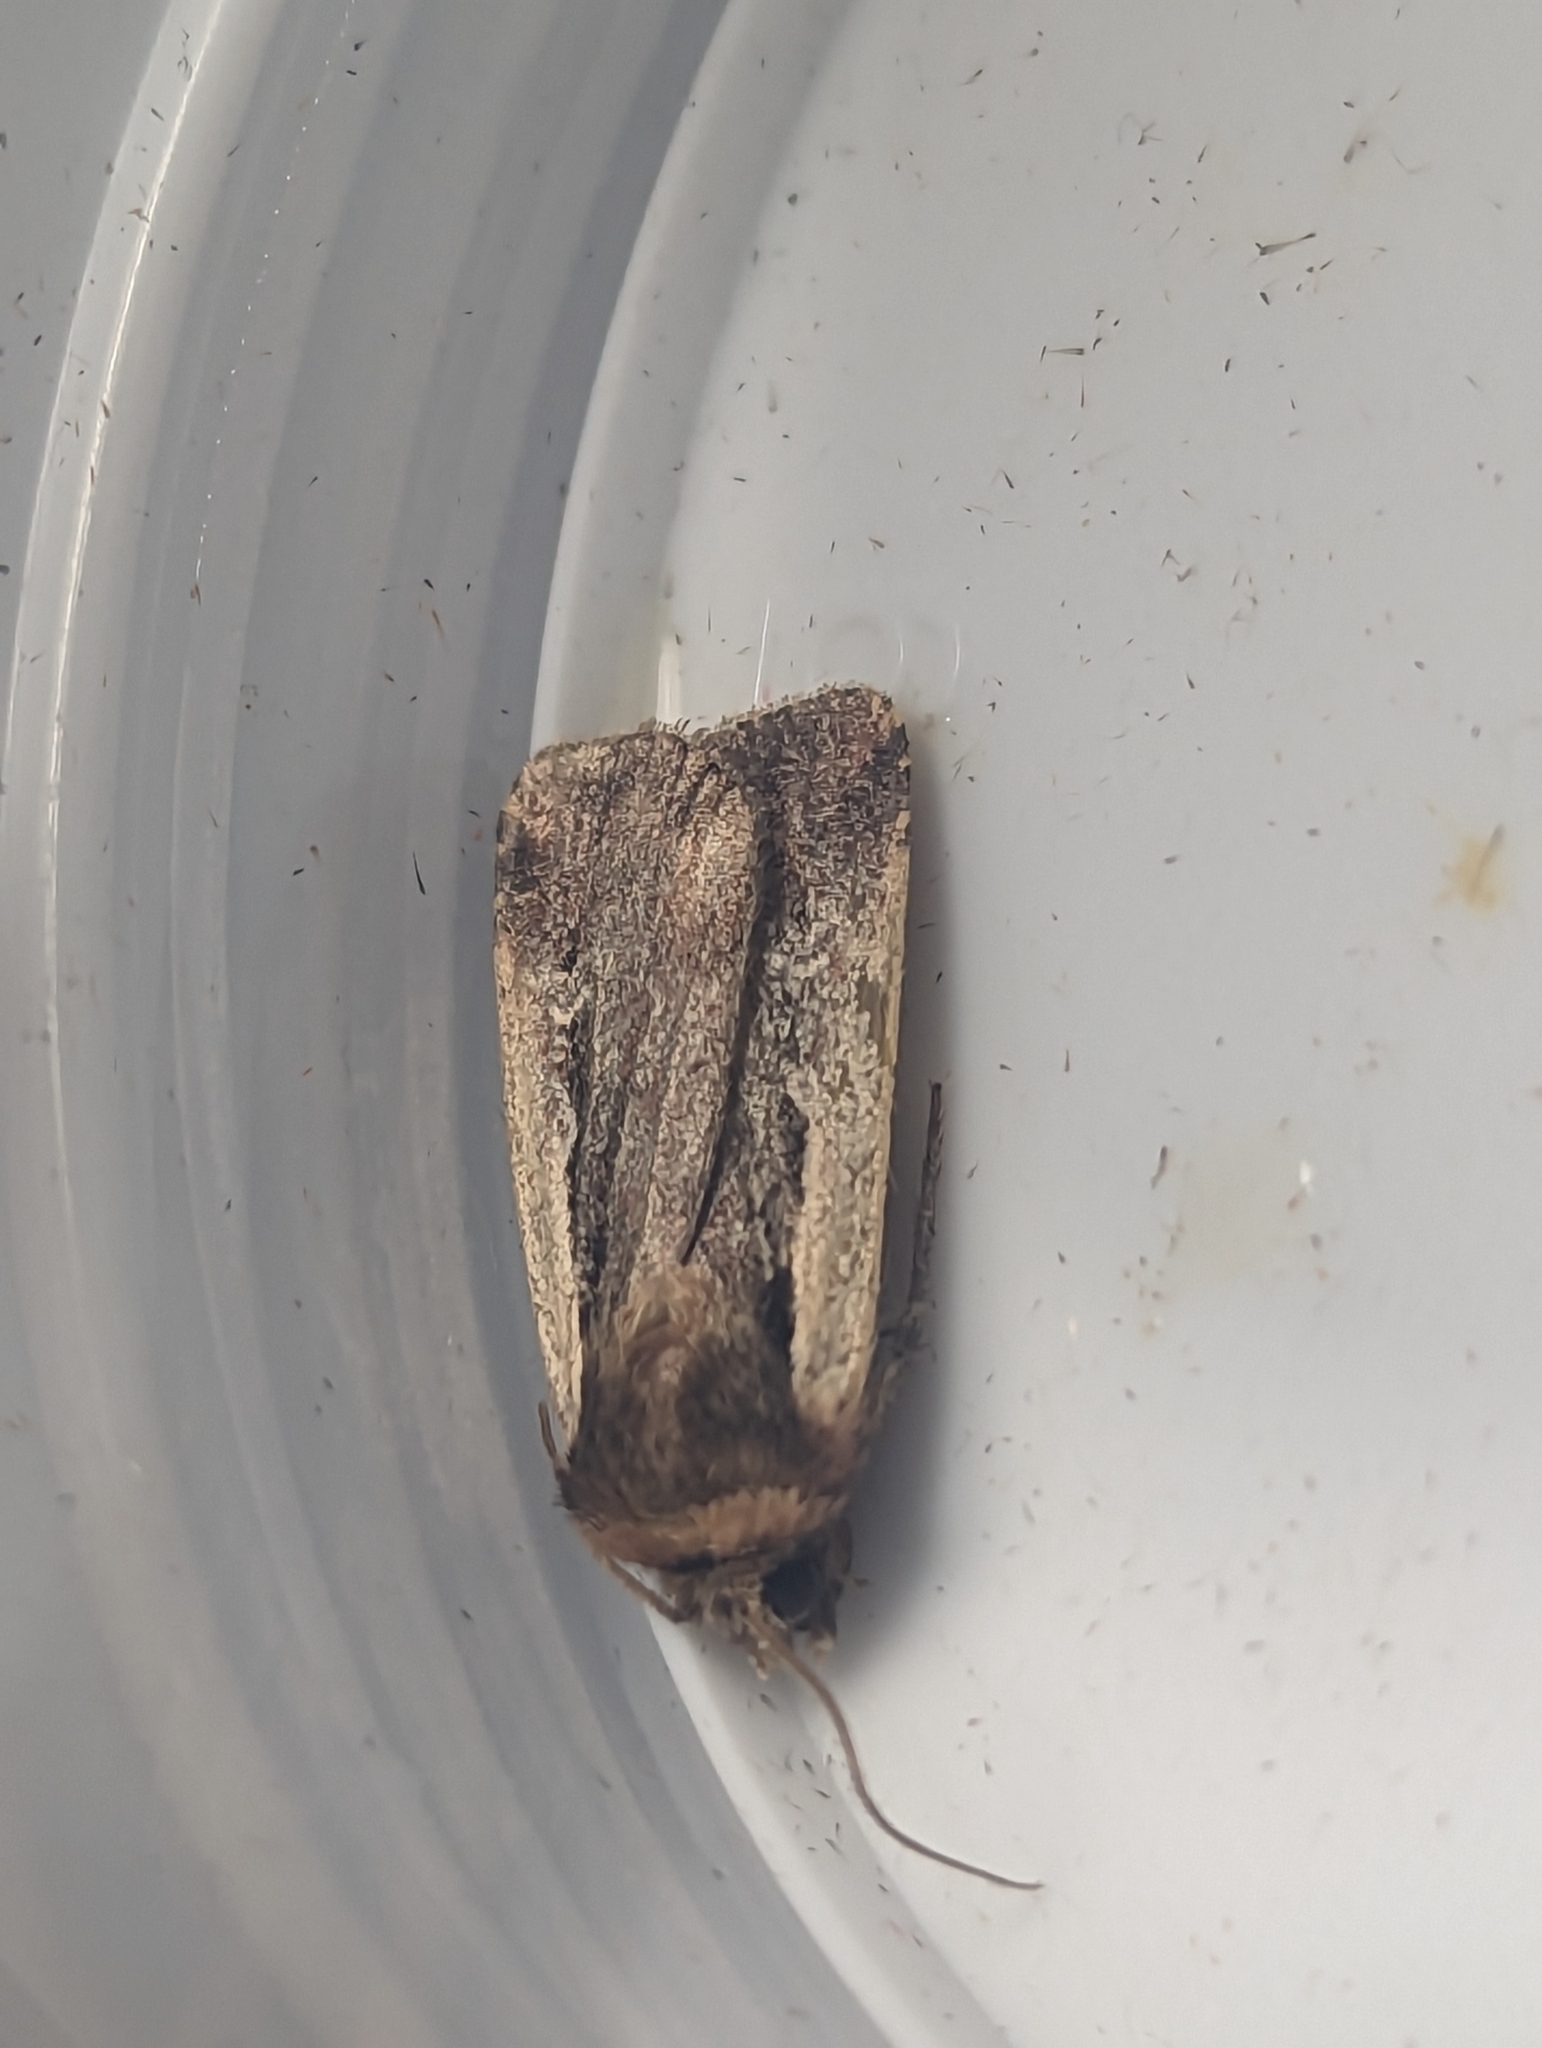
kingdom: Animalia
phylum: Arthropoda
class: Insecta
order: Lepidoptera
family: Noctuidae
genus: Ochropleura
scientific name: Ochropleura plecta
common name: Flame shoulder
